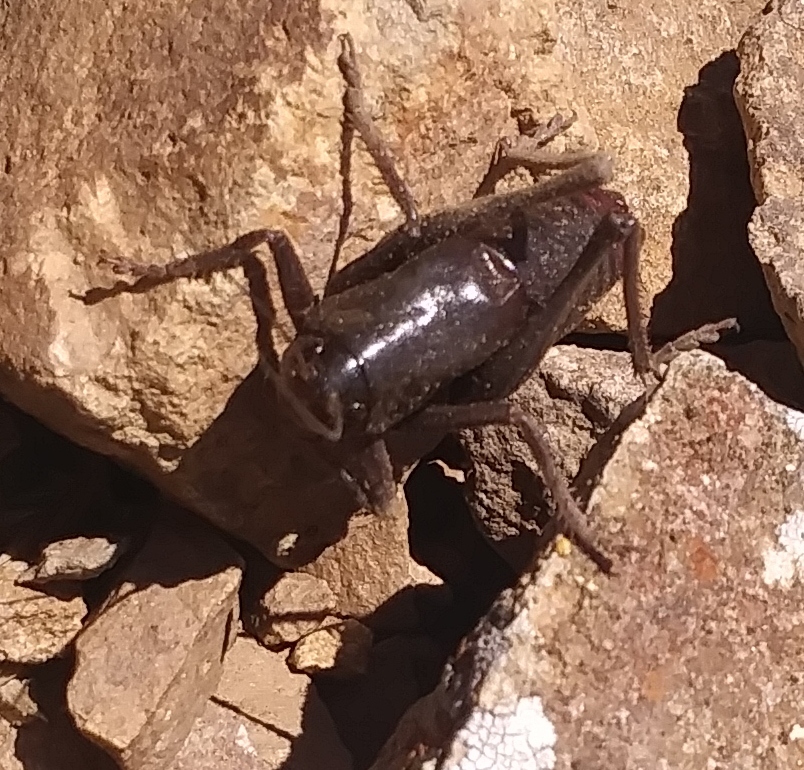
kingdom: Animalia
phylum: Arthropoda
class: Insecta
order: Orthoptera
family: Tettigoniidae
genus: Anabrus
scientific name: Anabrus simplex
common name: Mormon cricket
